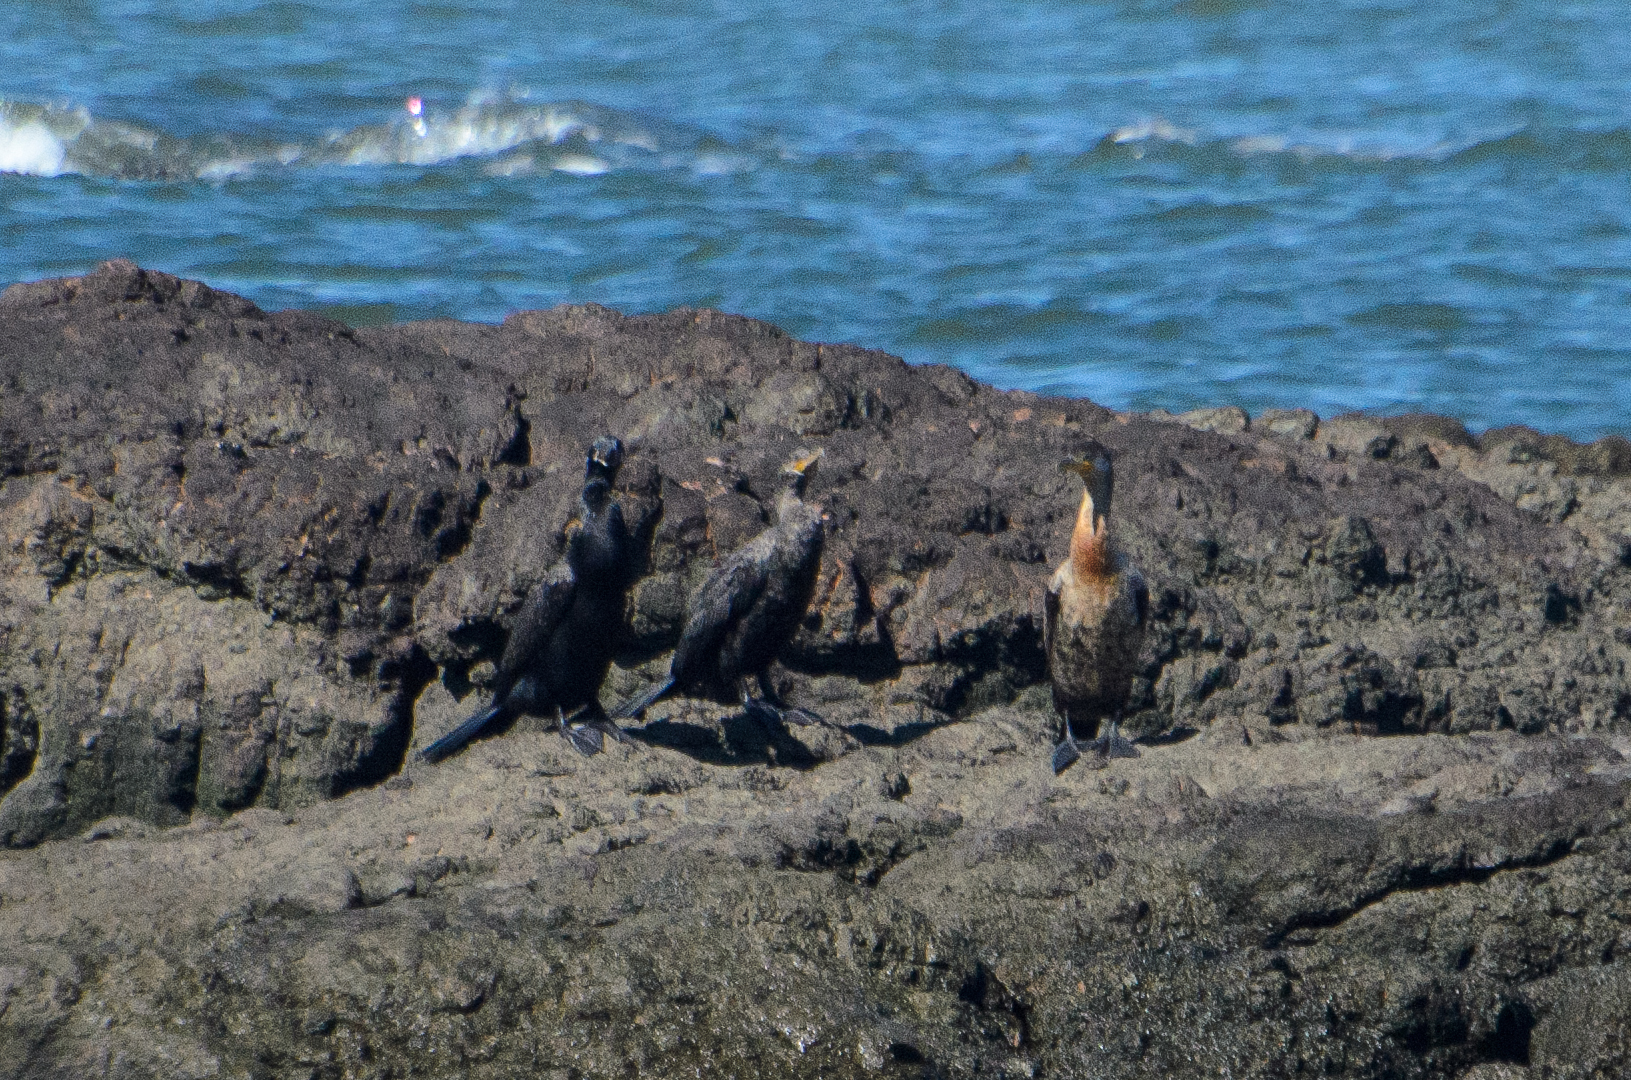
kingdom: Animalia
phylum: Chordata
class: Aves
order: Suliformes
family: Phalacrocoracidae
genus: Phalacrocorax
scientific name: Phalacrocorax brasilianus
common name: Neotropic cormorant
